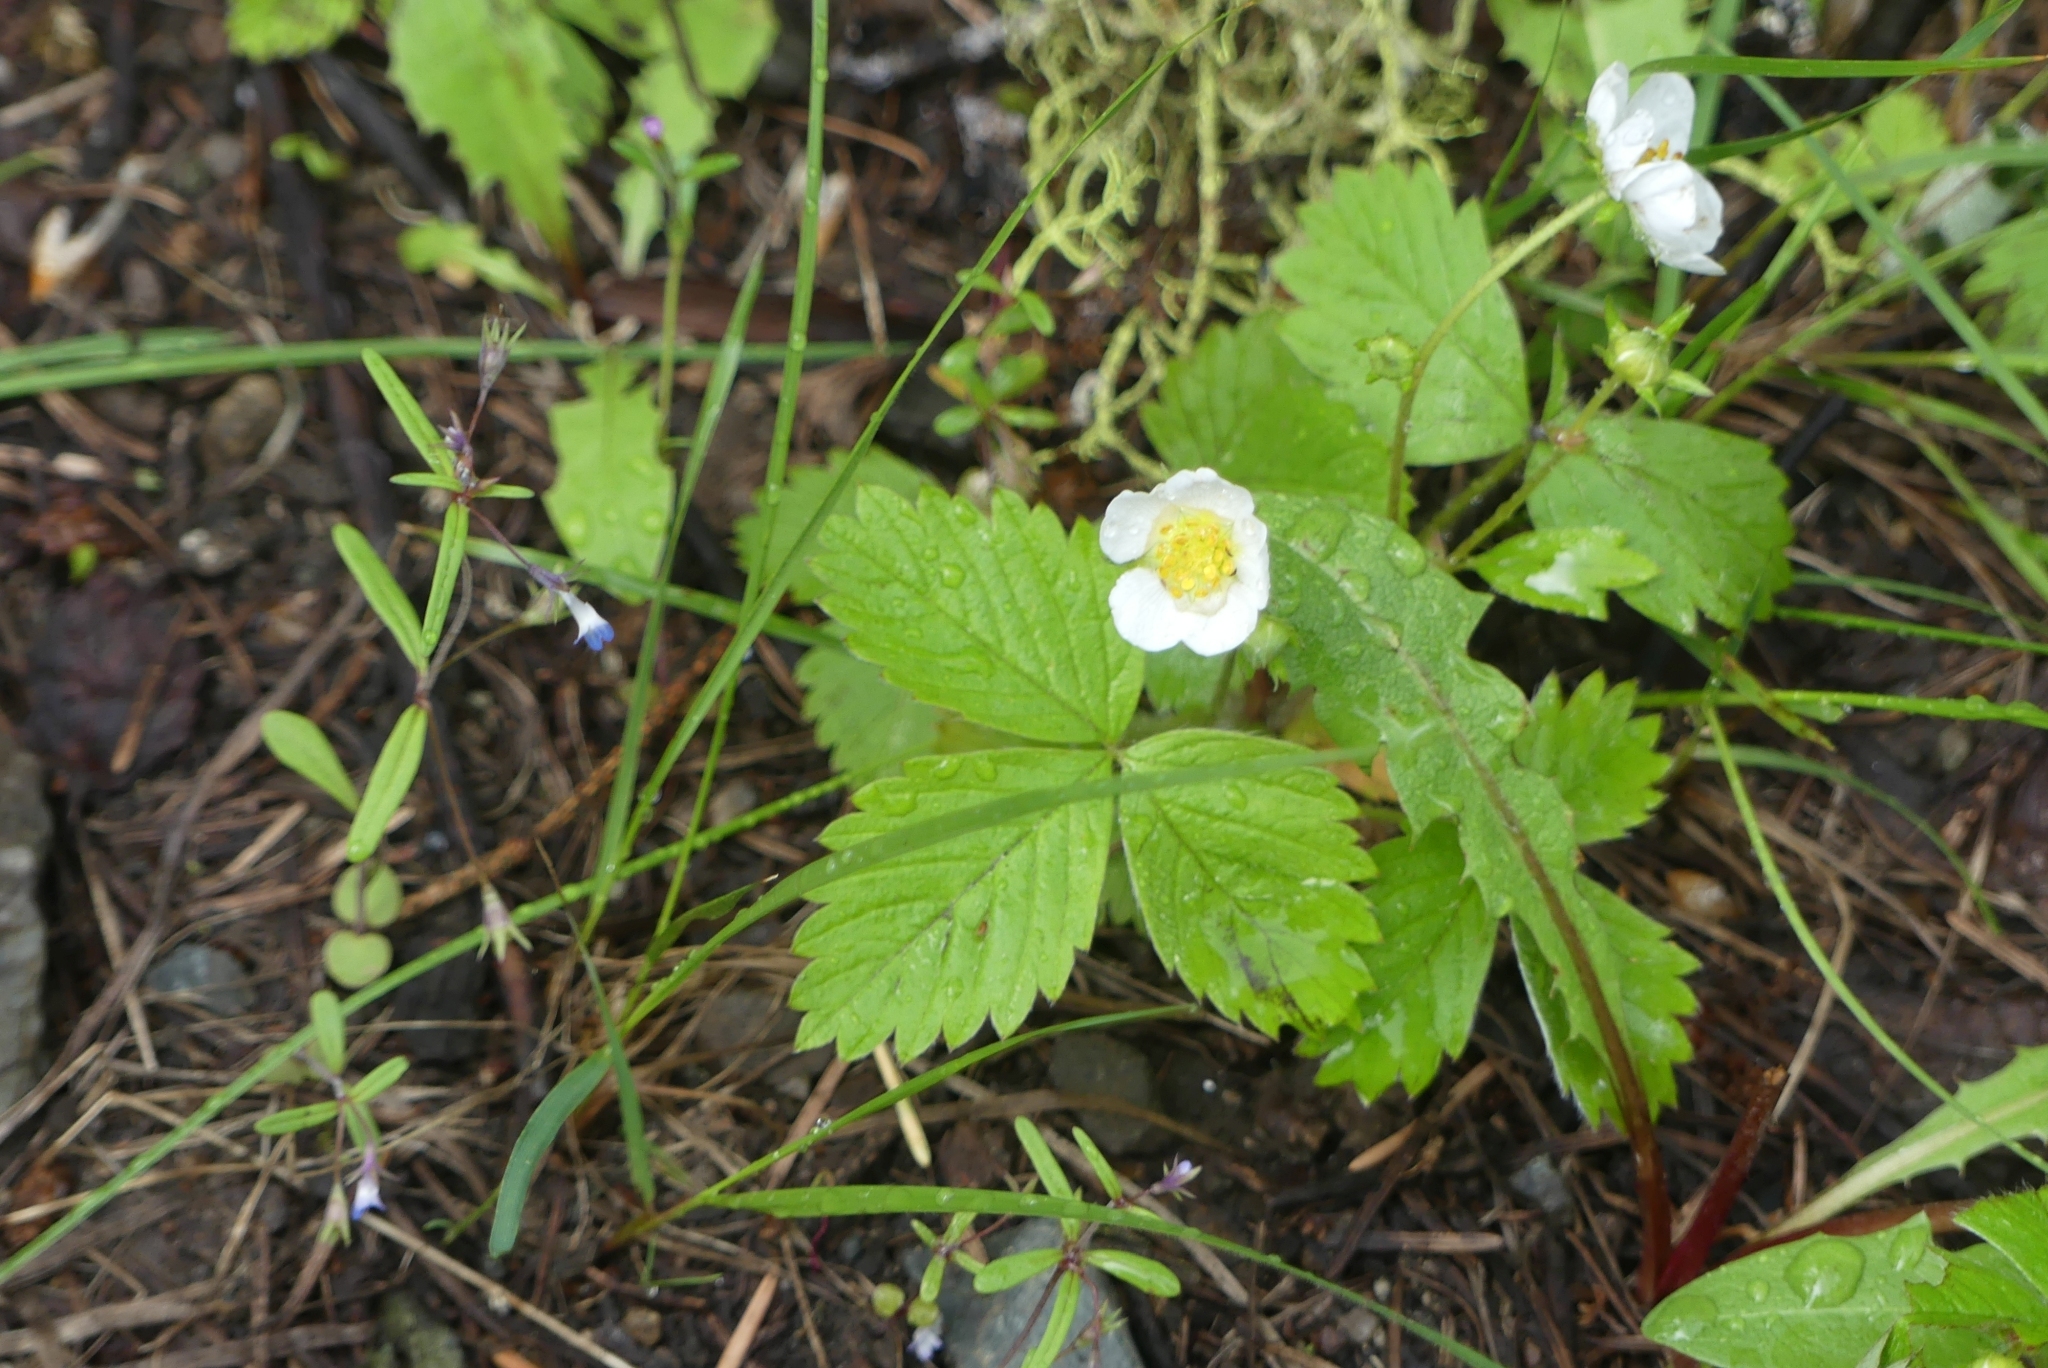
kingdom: Plantae
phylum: Tracheophyta
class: Magnoliopsida
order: Rosales
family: Rosaceae
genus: Fragaria
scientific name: Fragaria vesca
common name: Wild strawberry
